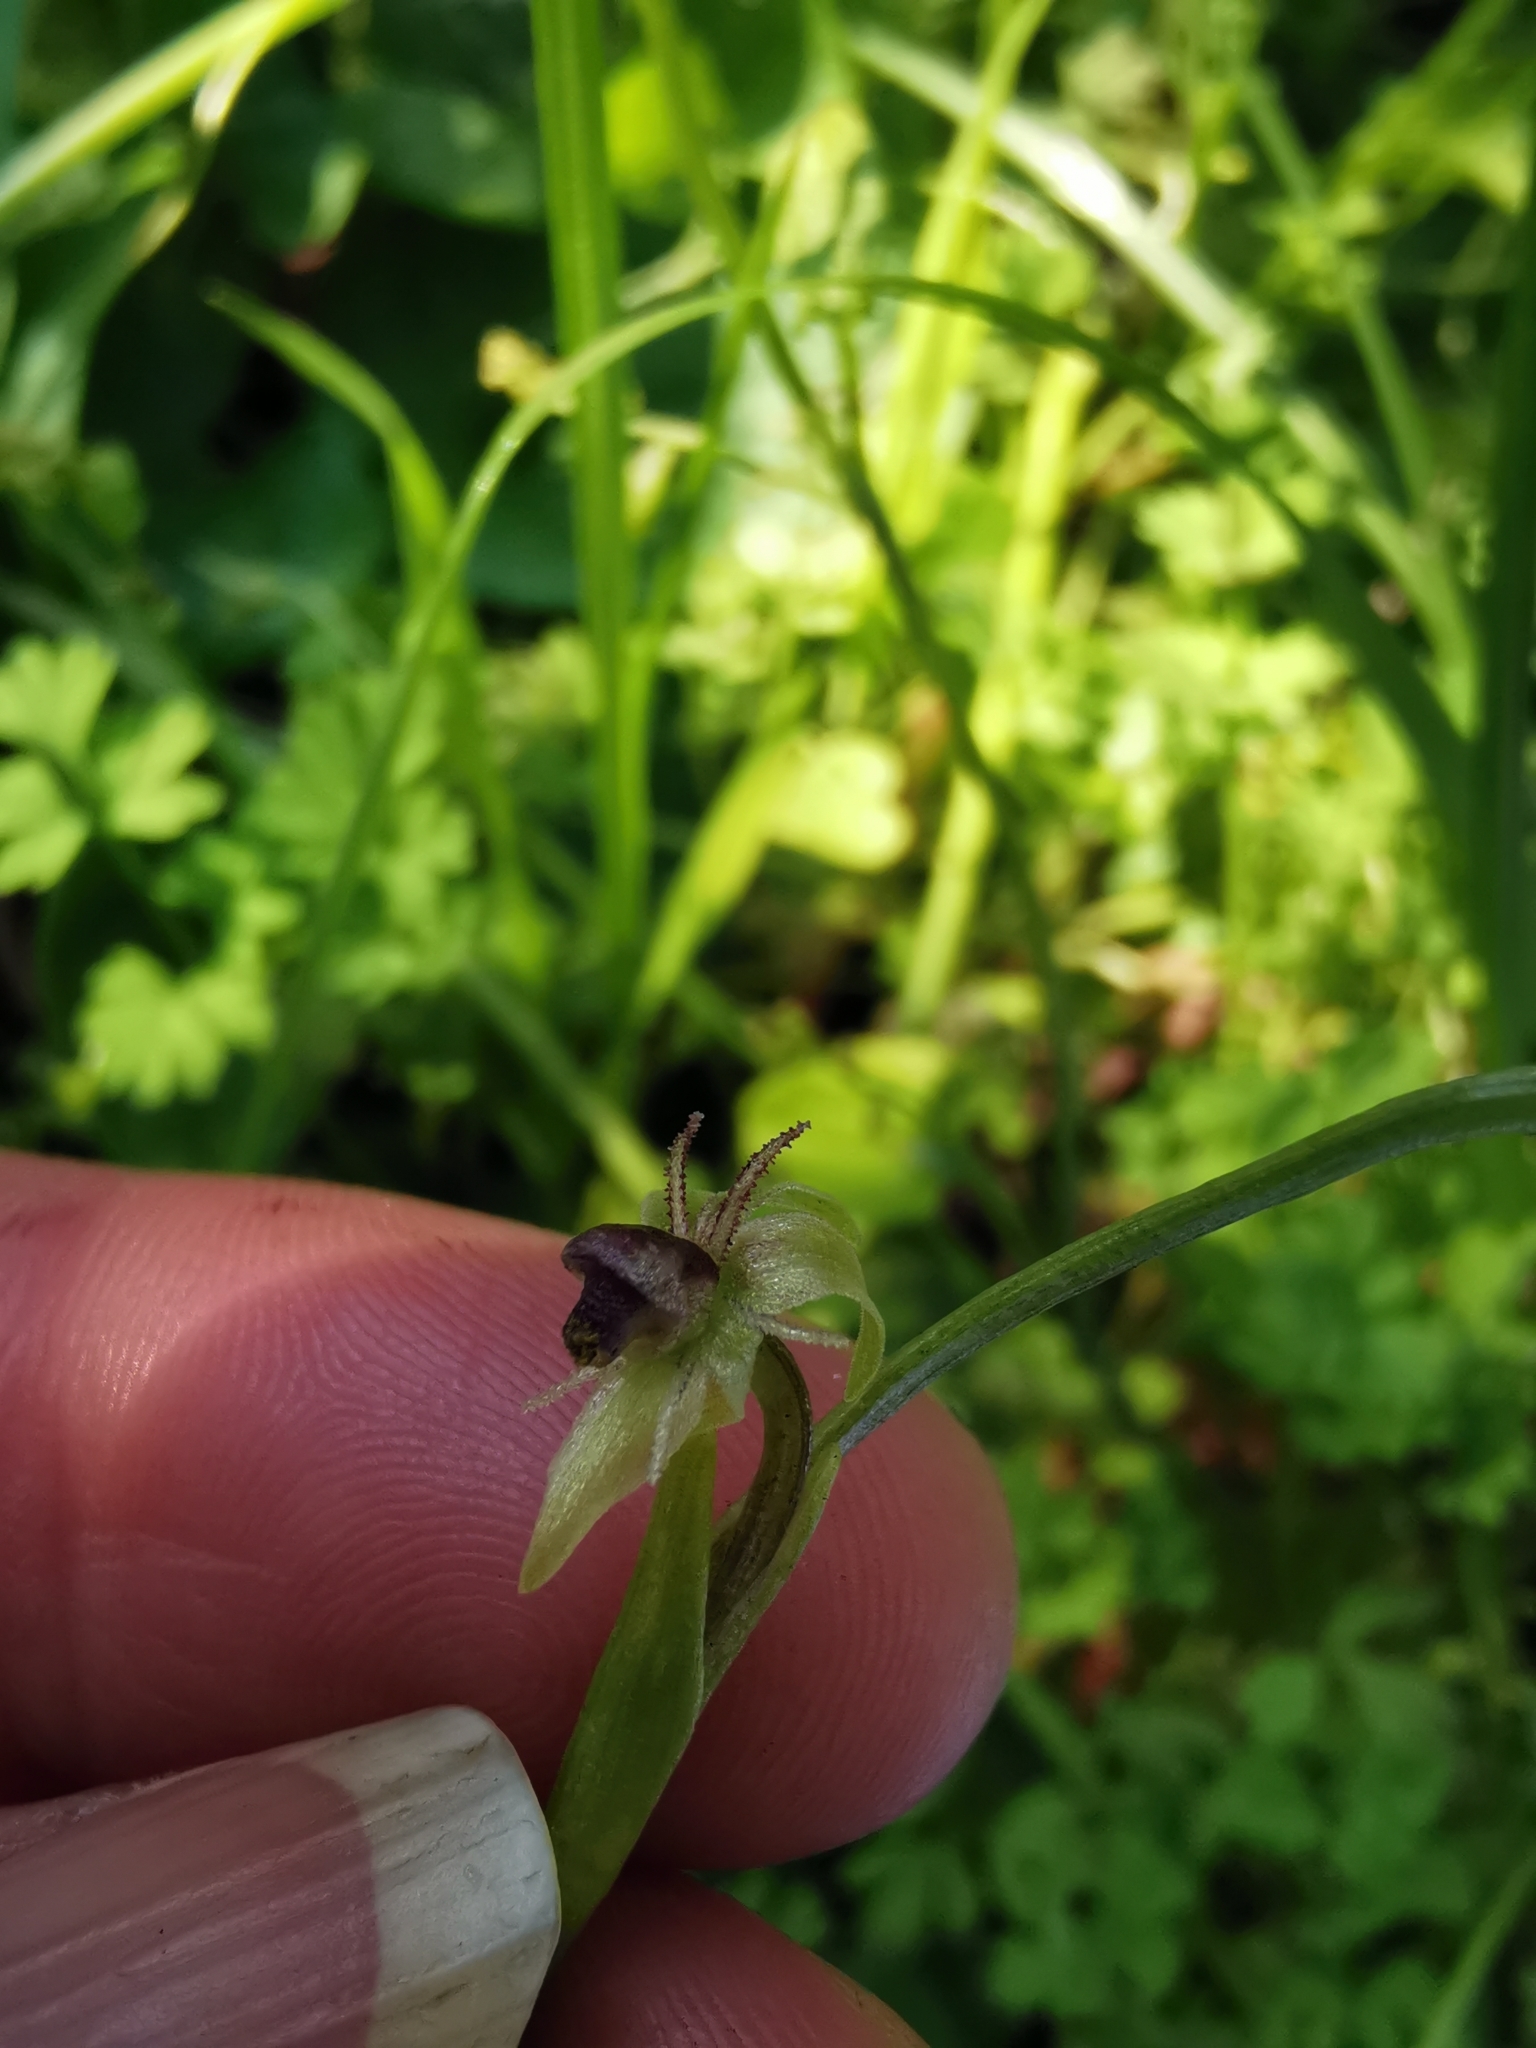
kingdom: Plantae
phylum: Tracheophyta
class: Liliopsida
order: Asparagales
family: Amaryllidaceae
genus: Miersia
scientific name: Miersia chilensis
